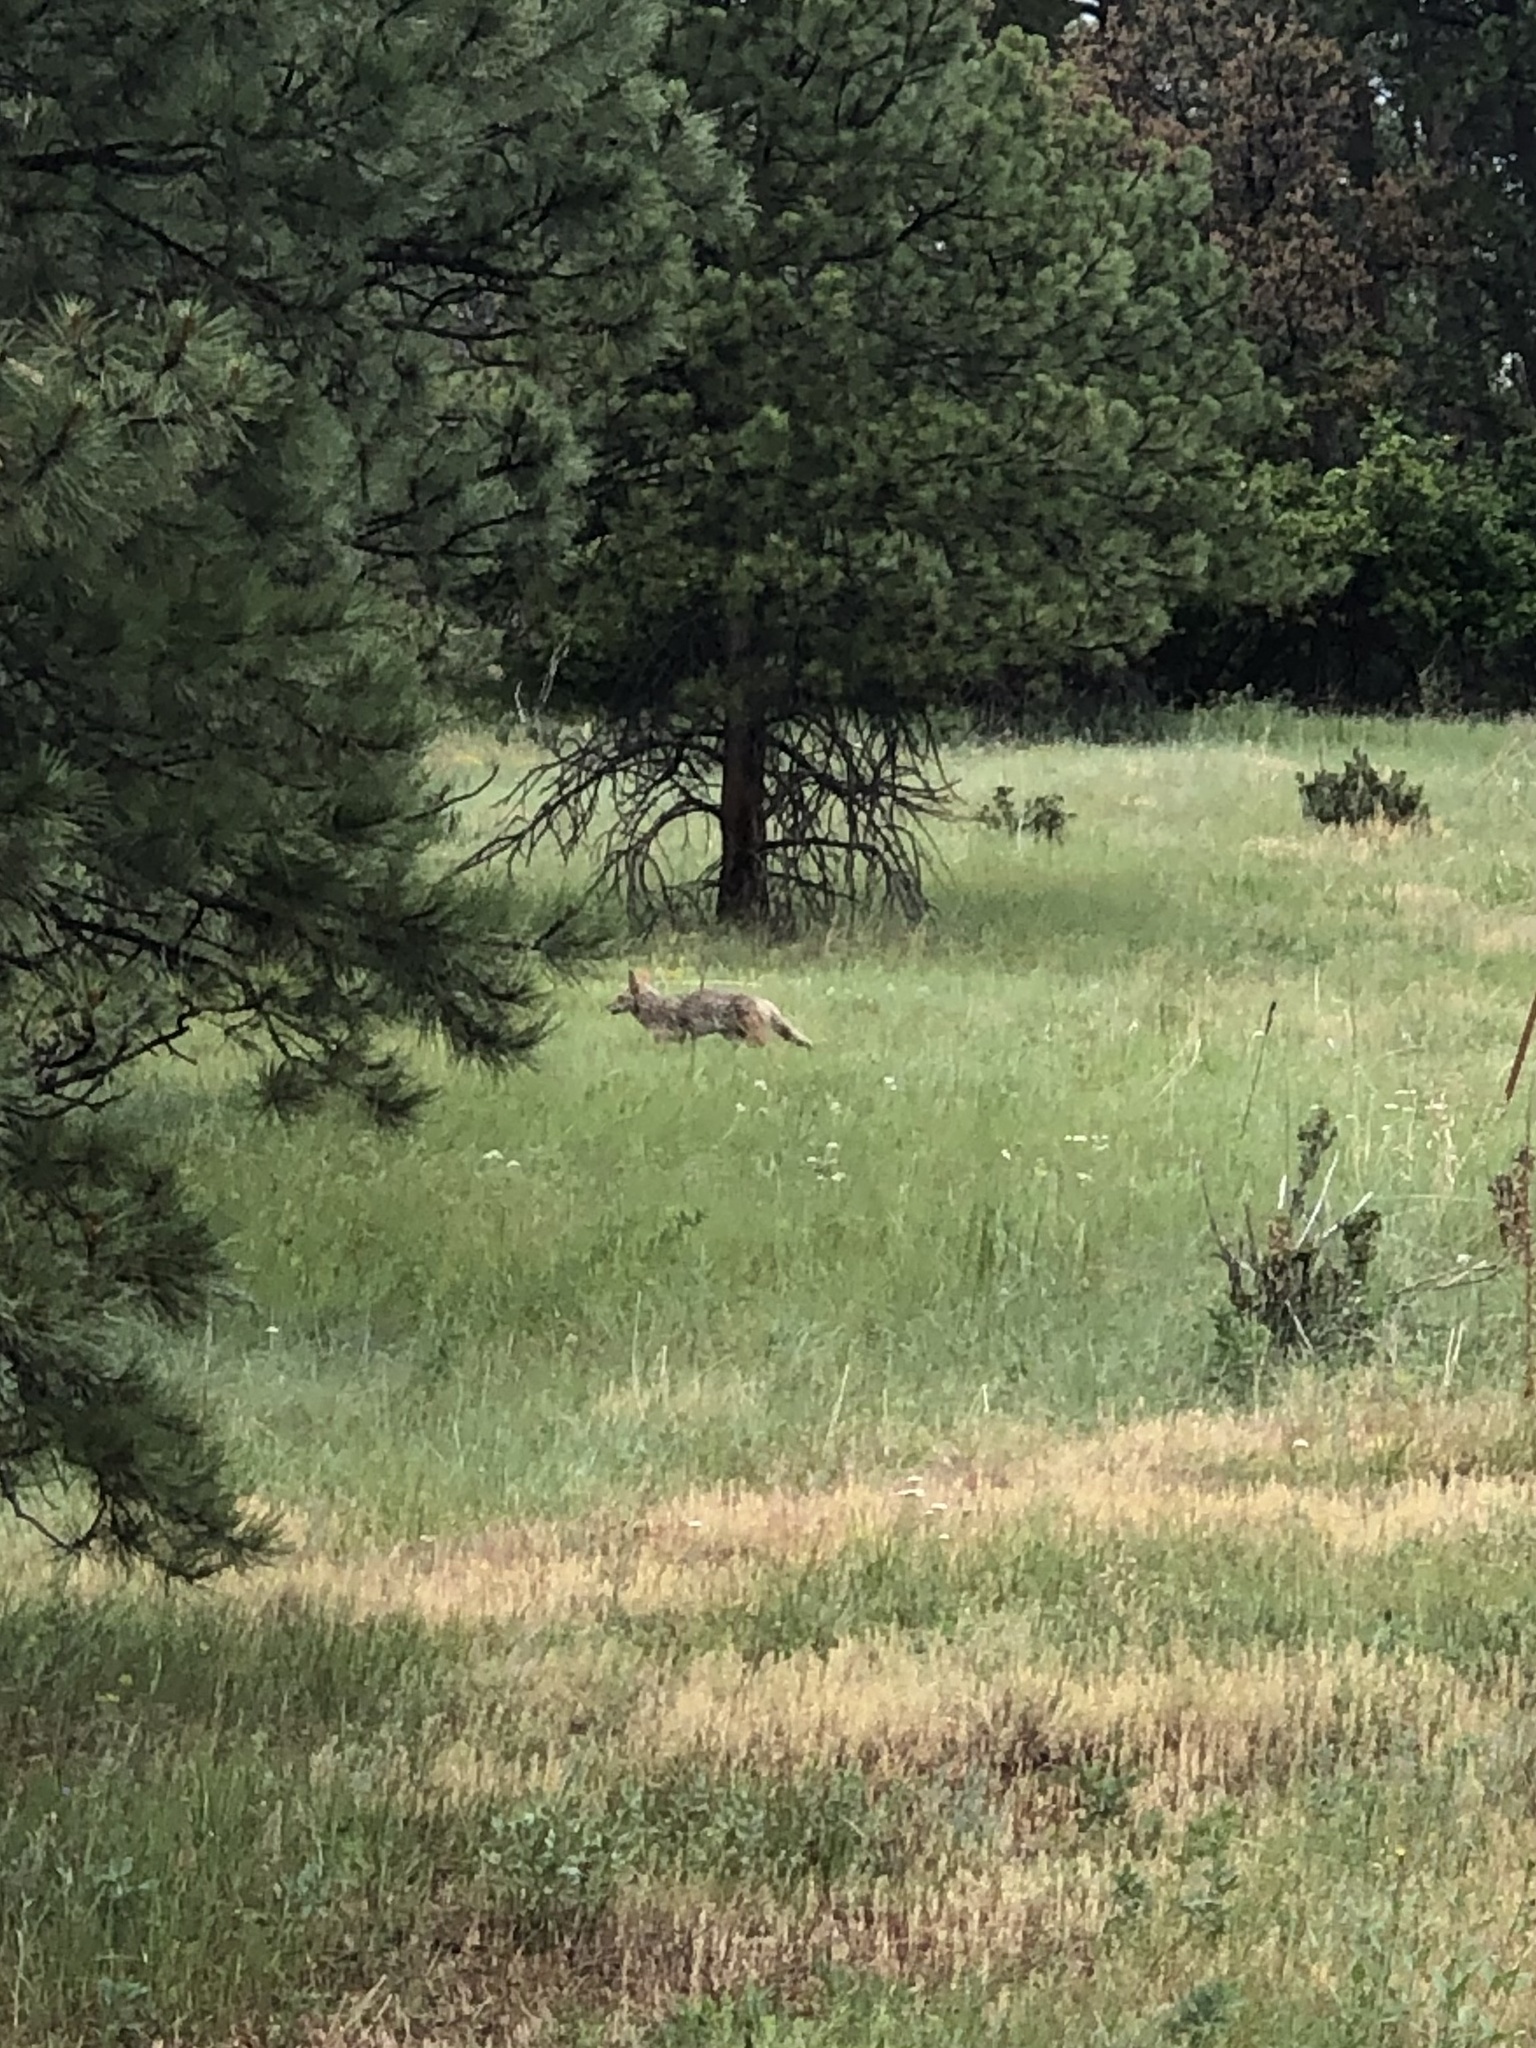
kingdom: Animalia
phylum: Chordata
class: Mammalia
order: Carnivora
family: Canidae
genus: Canis
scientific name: Canis latrans
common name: Coyote
